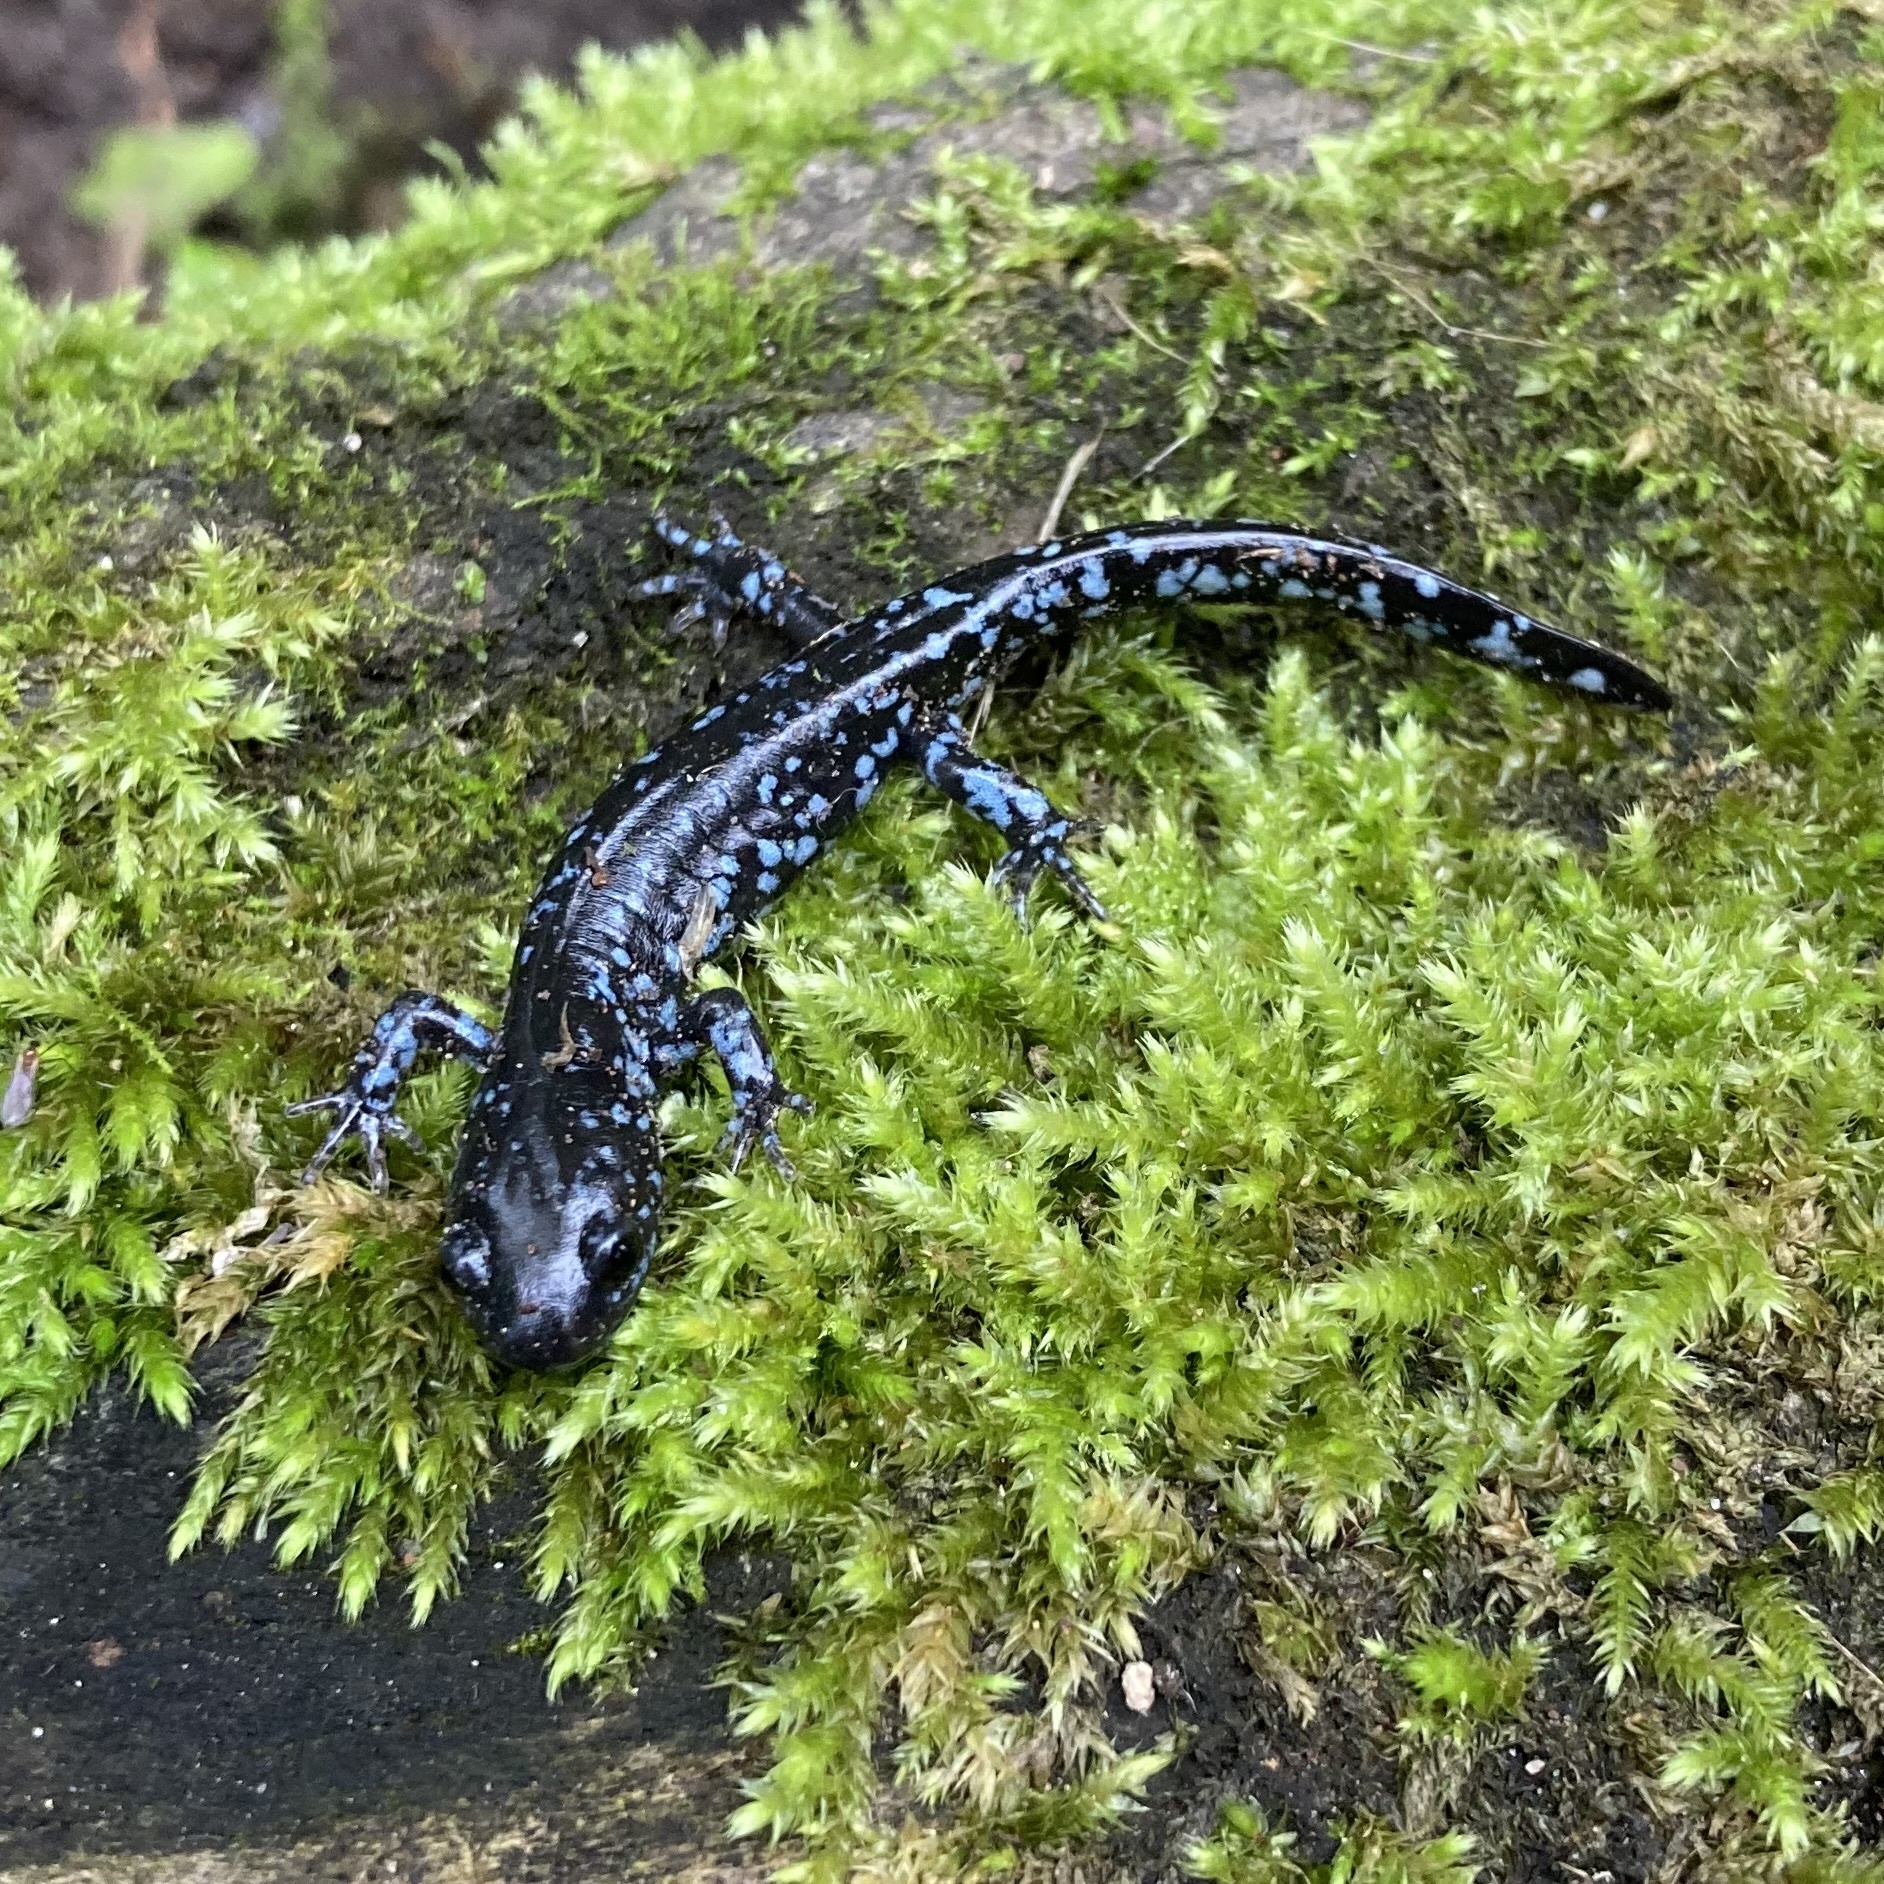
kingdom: Animalia
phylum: Chordata
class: Amphibia
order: Caudata
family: Ambystomatidae
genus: Ambystoma
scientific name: Ambystoma laterale
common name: Blue-spotted salamander
